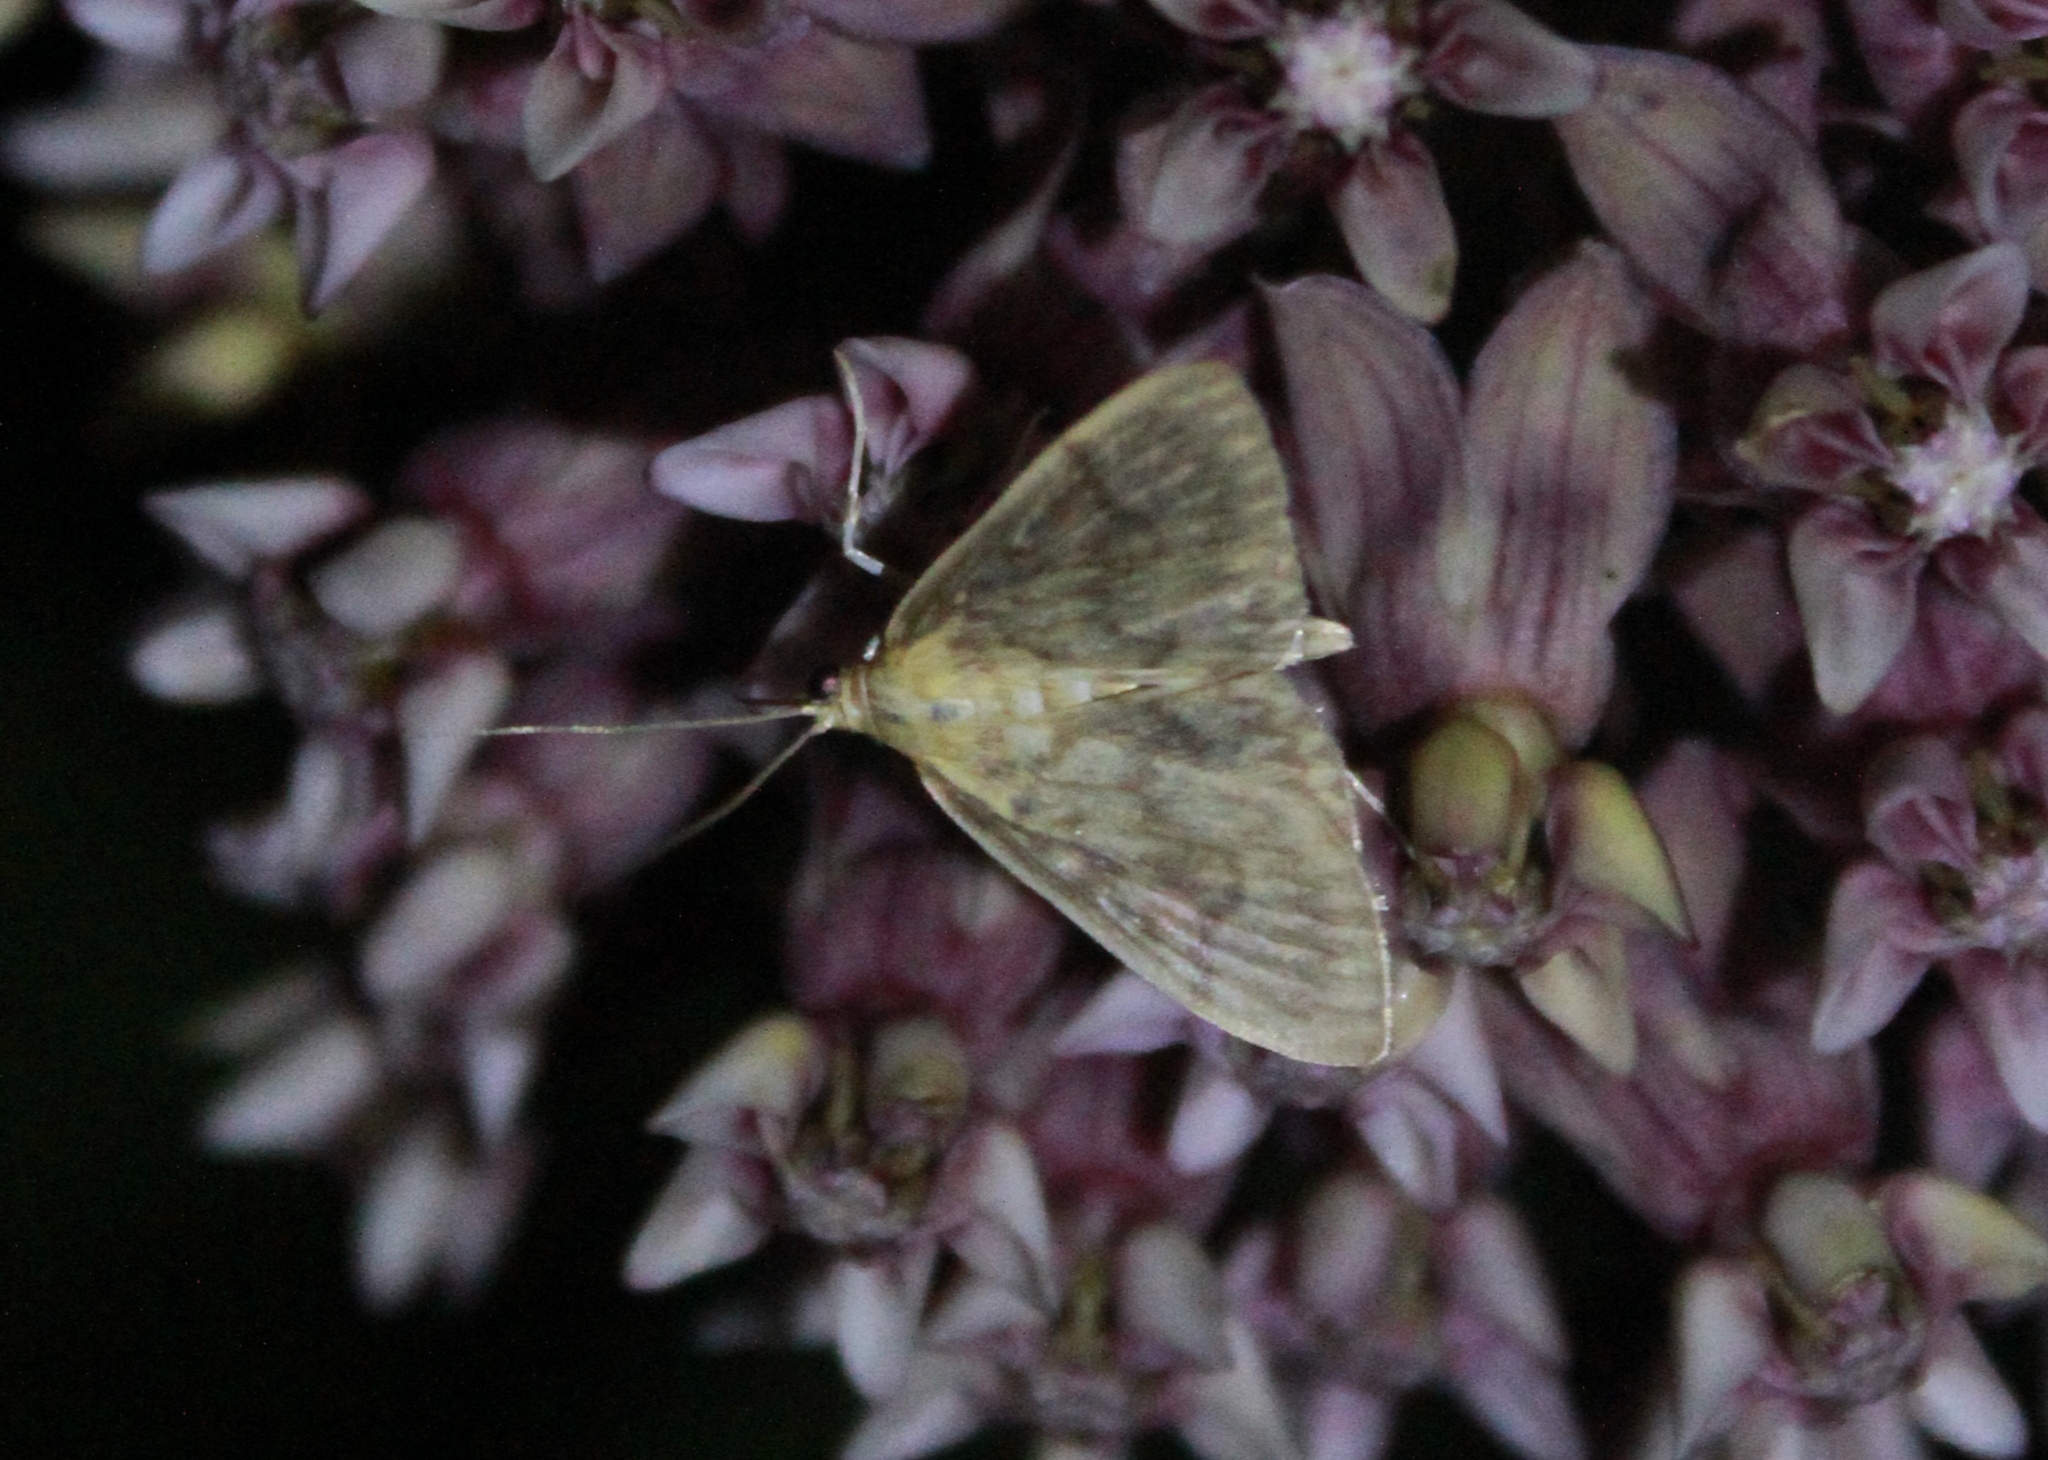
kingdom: Animalia
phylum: Arthropoda
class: Insecta
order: Lepidoptera
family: Crambidae
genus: Crocidophora
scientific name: Crocidophora serratissimalis
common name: Saw-toothed crocidophora moth
